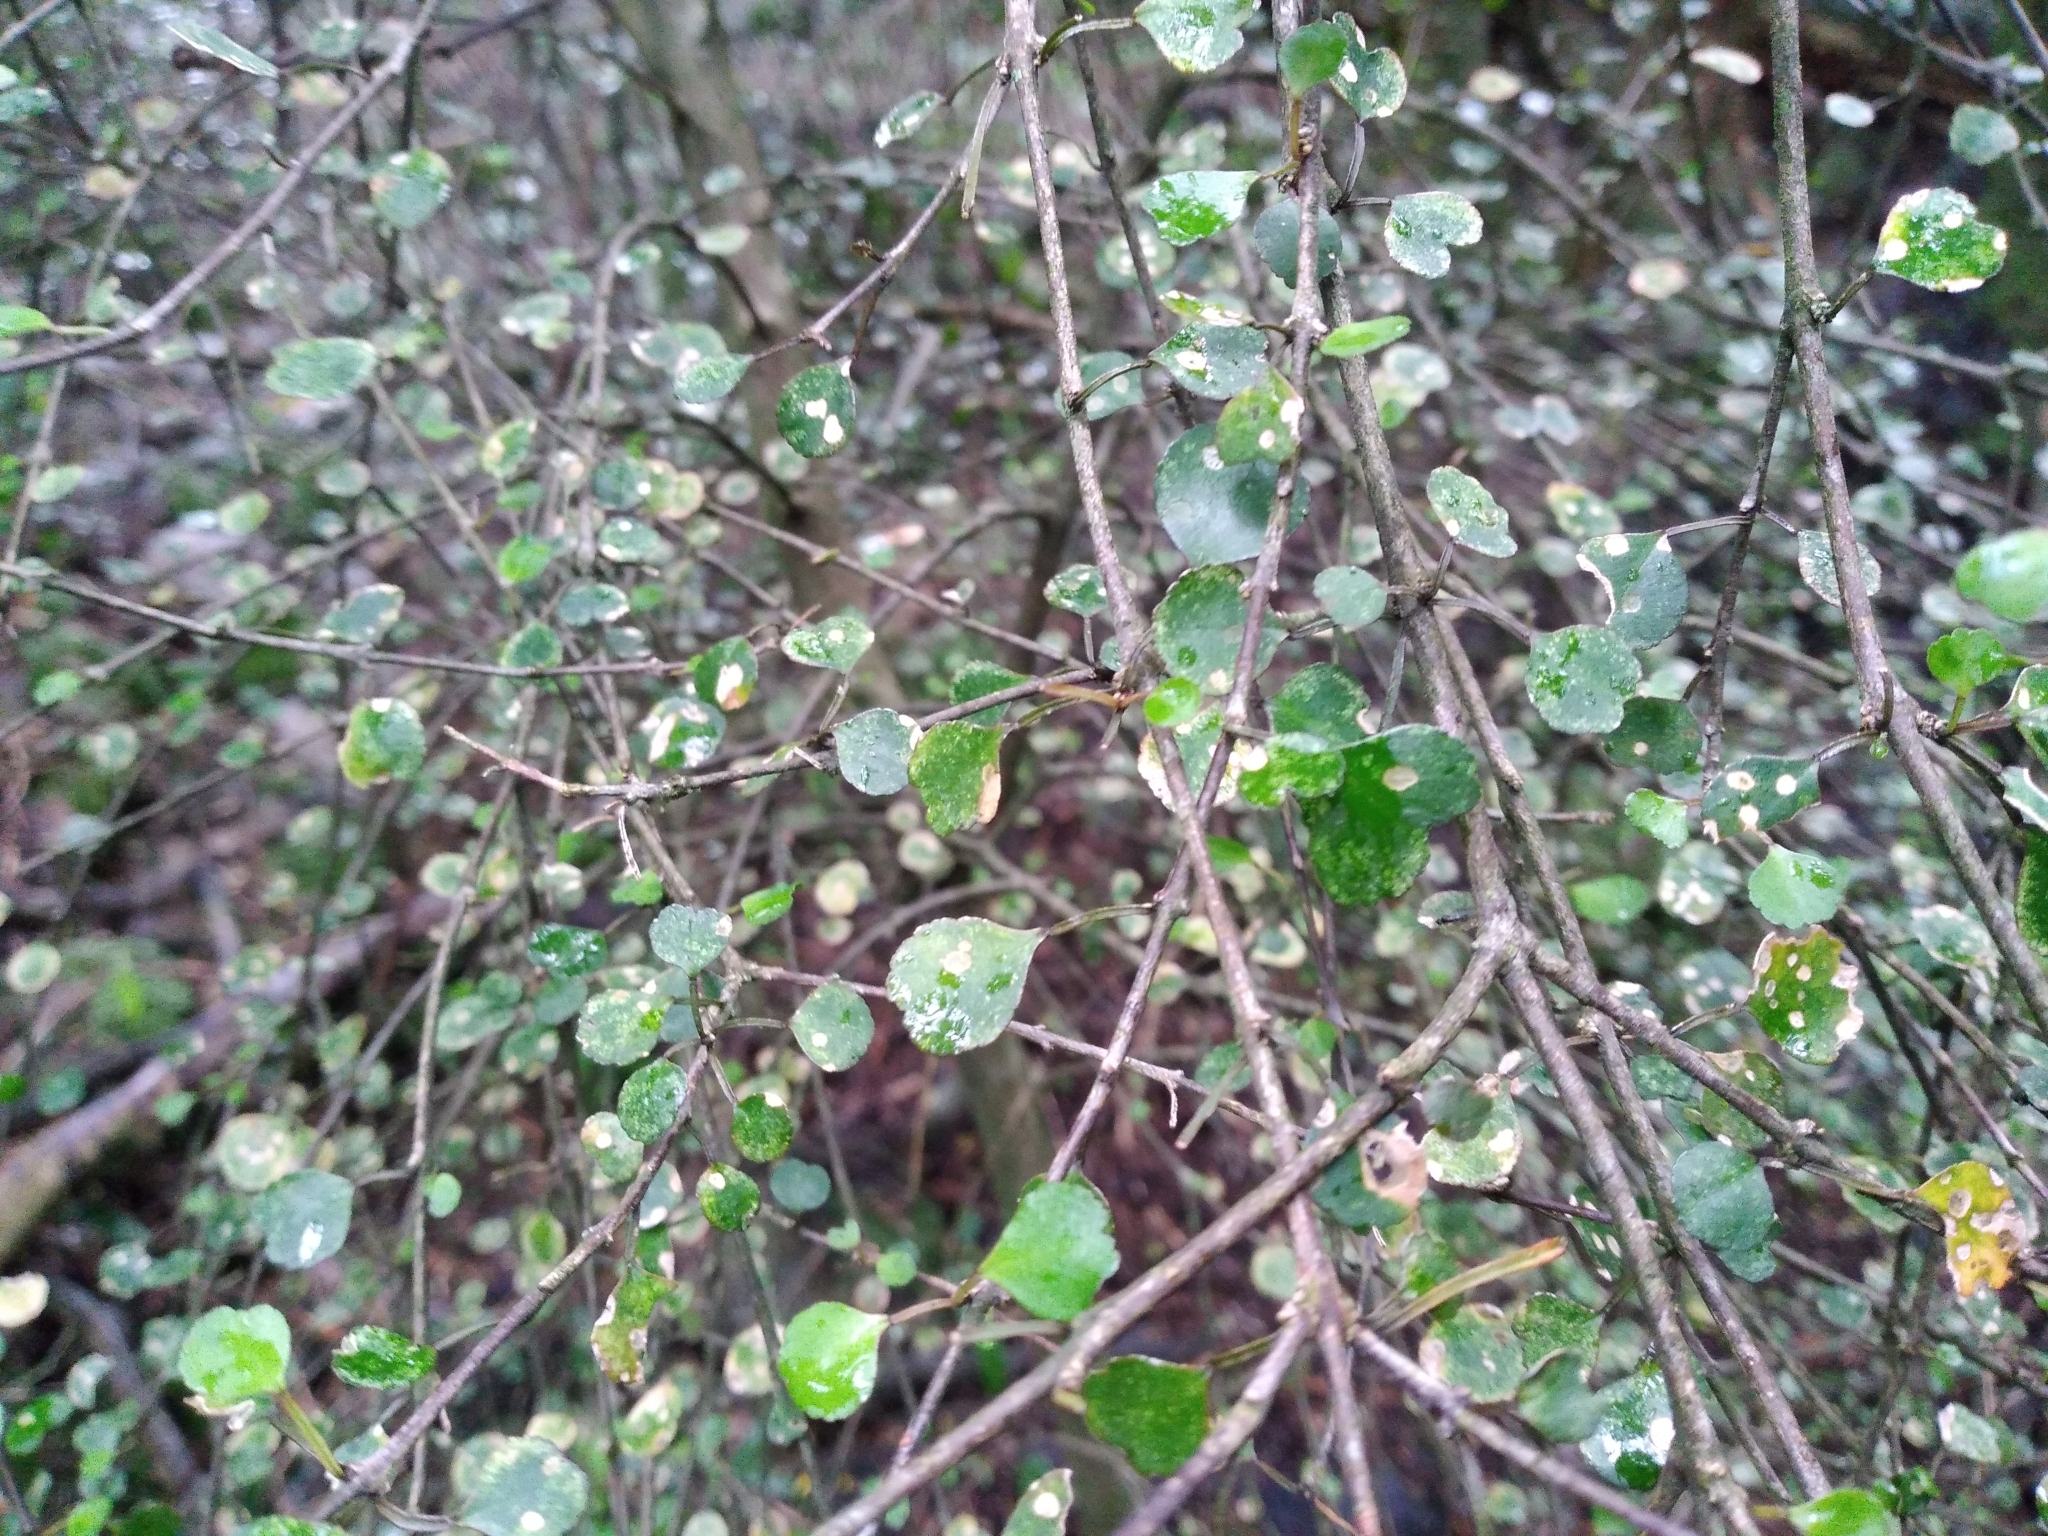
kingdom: Plantae
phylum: Tracheophyta
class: Magnoliopsida
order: Sapindales
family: Rutaceae
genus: Melicope
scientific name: Melicope simplex
